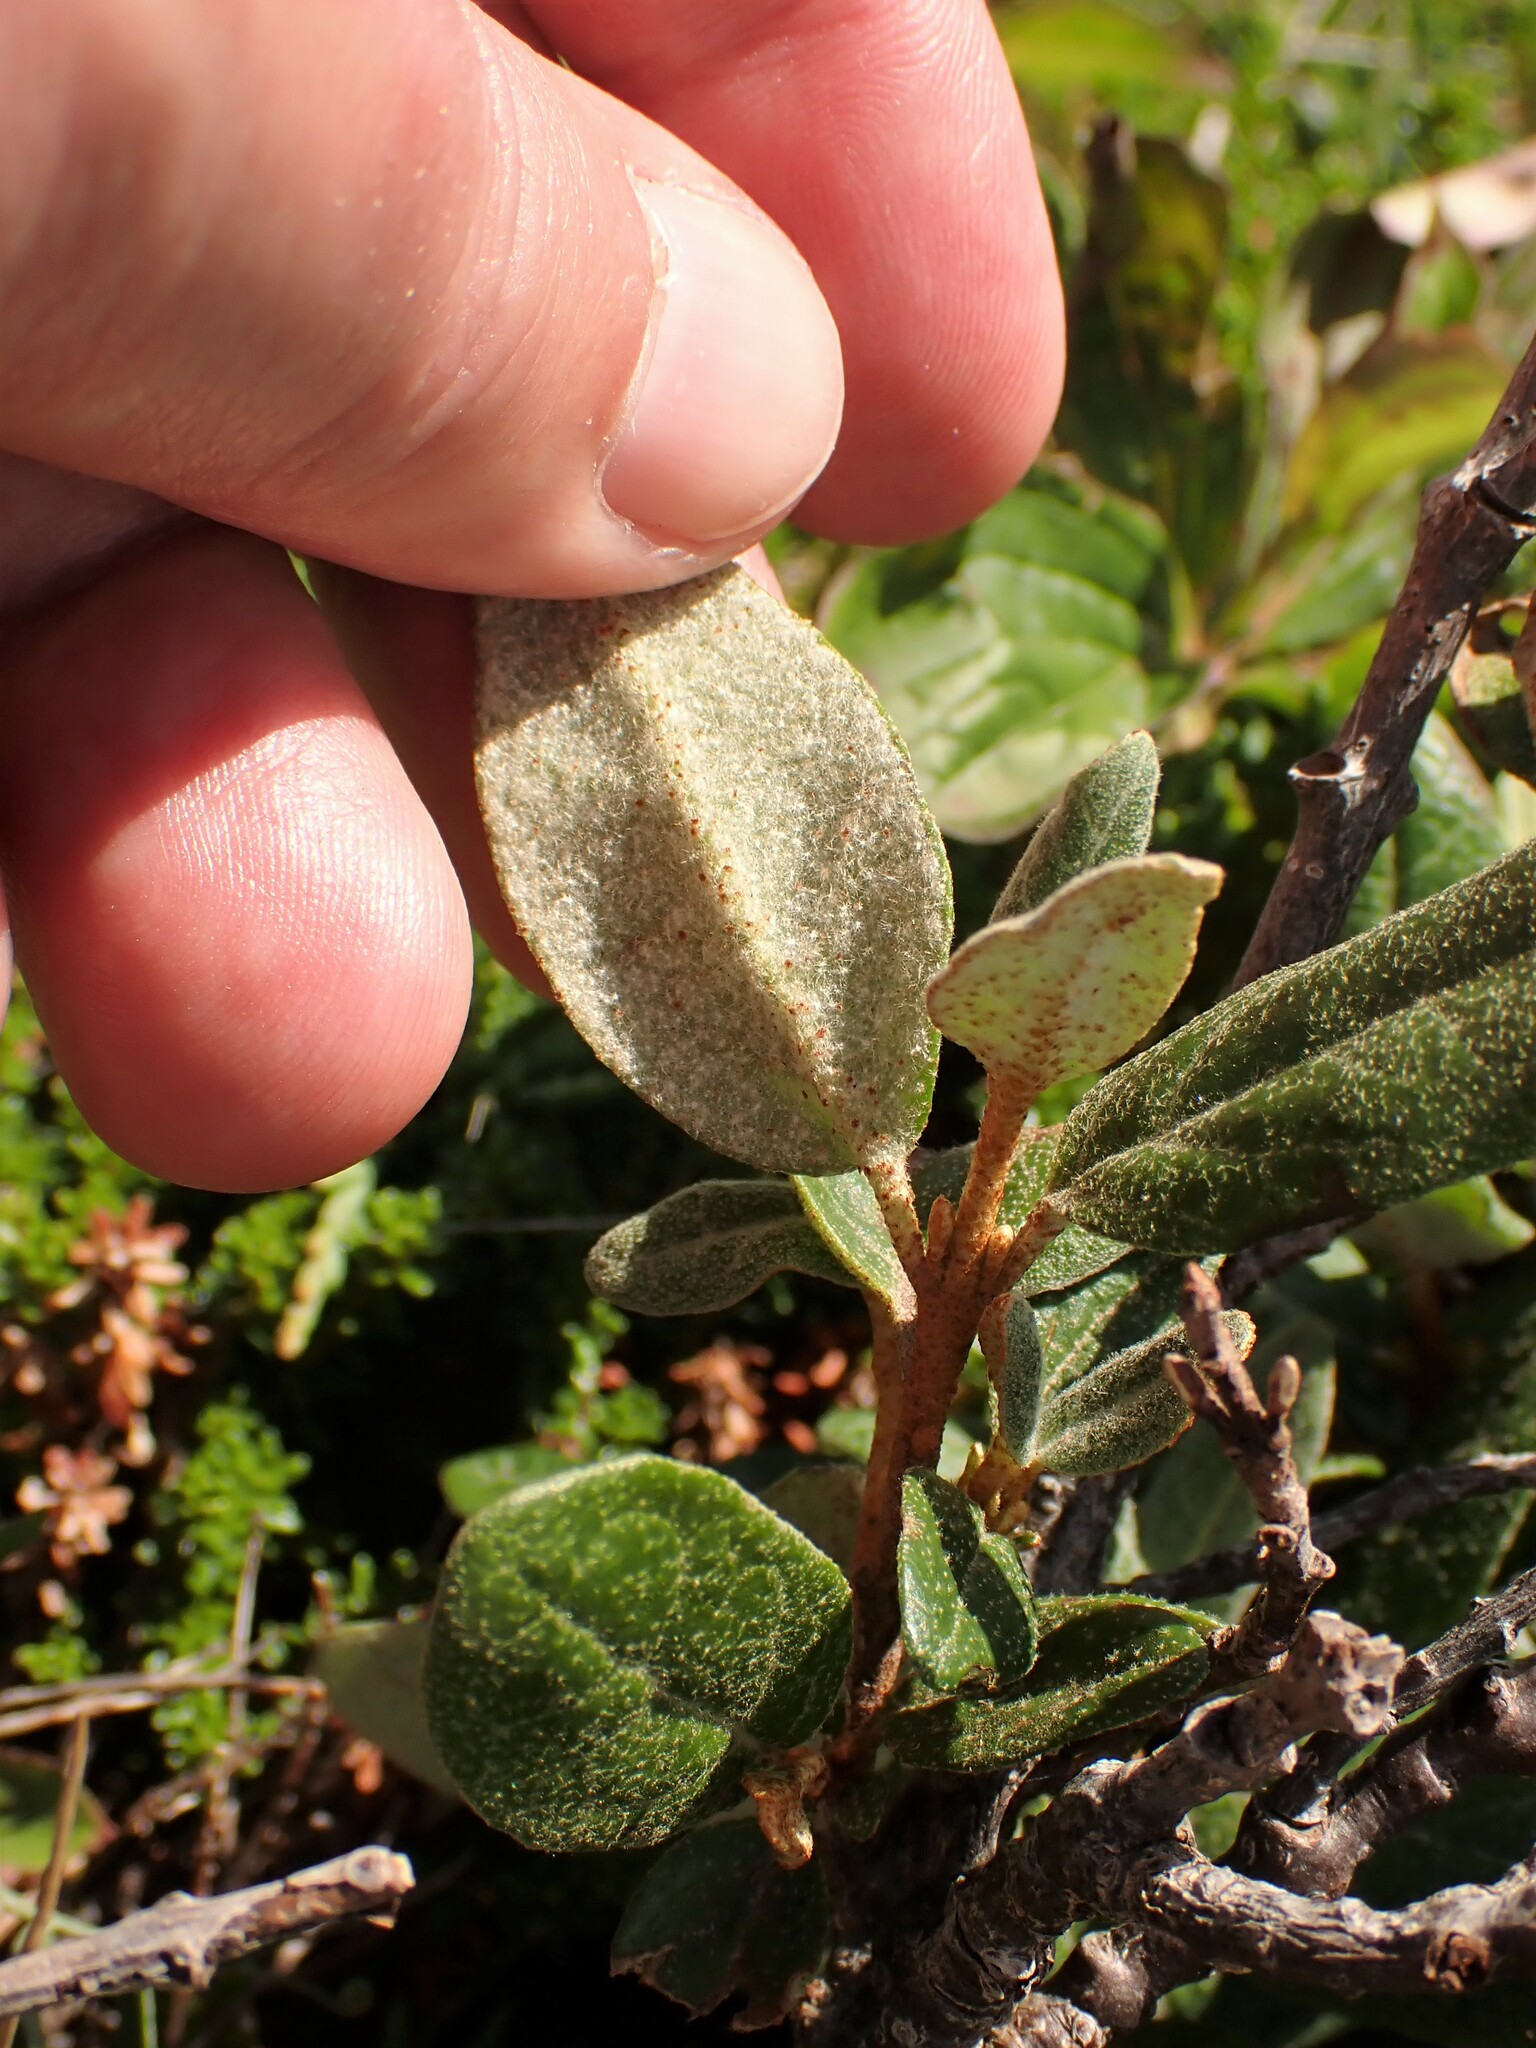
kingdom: Plantae
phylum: Tracheophyta
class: Magnoliopsida
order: Rosales
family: Elaeagnaceae
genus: Shepherdia
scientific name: Shepherdia canadensis
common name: Soapberry
